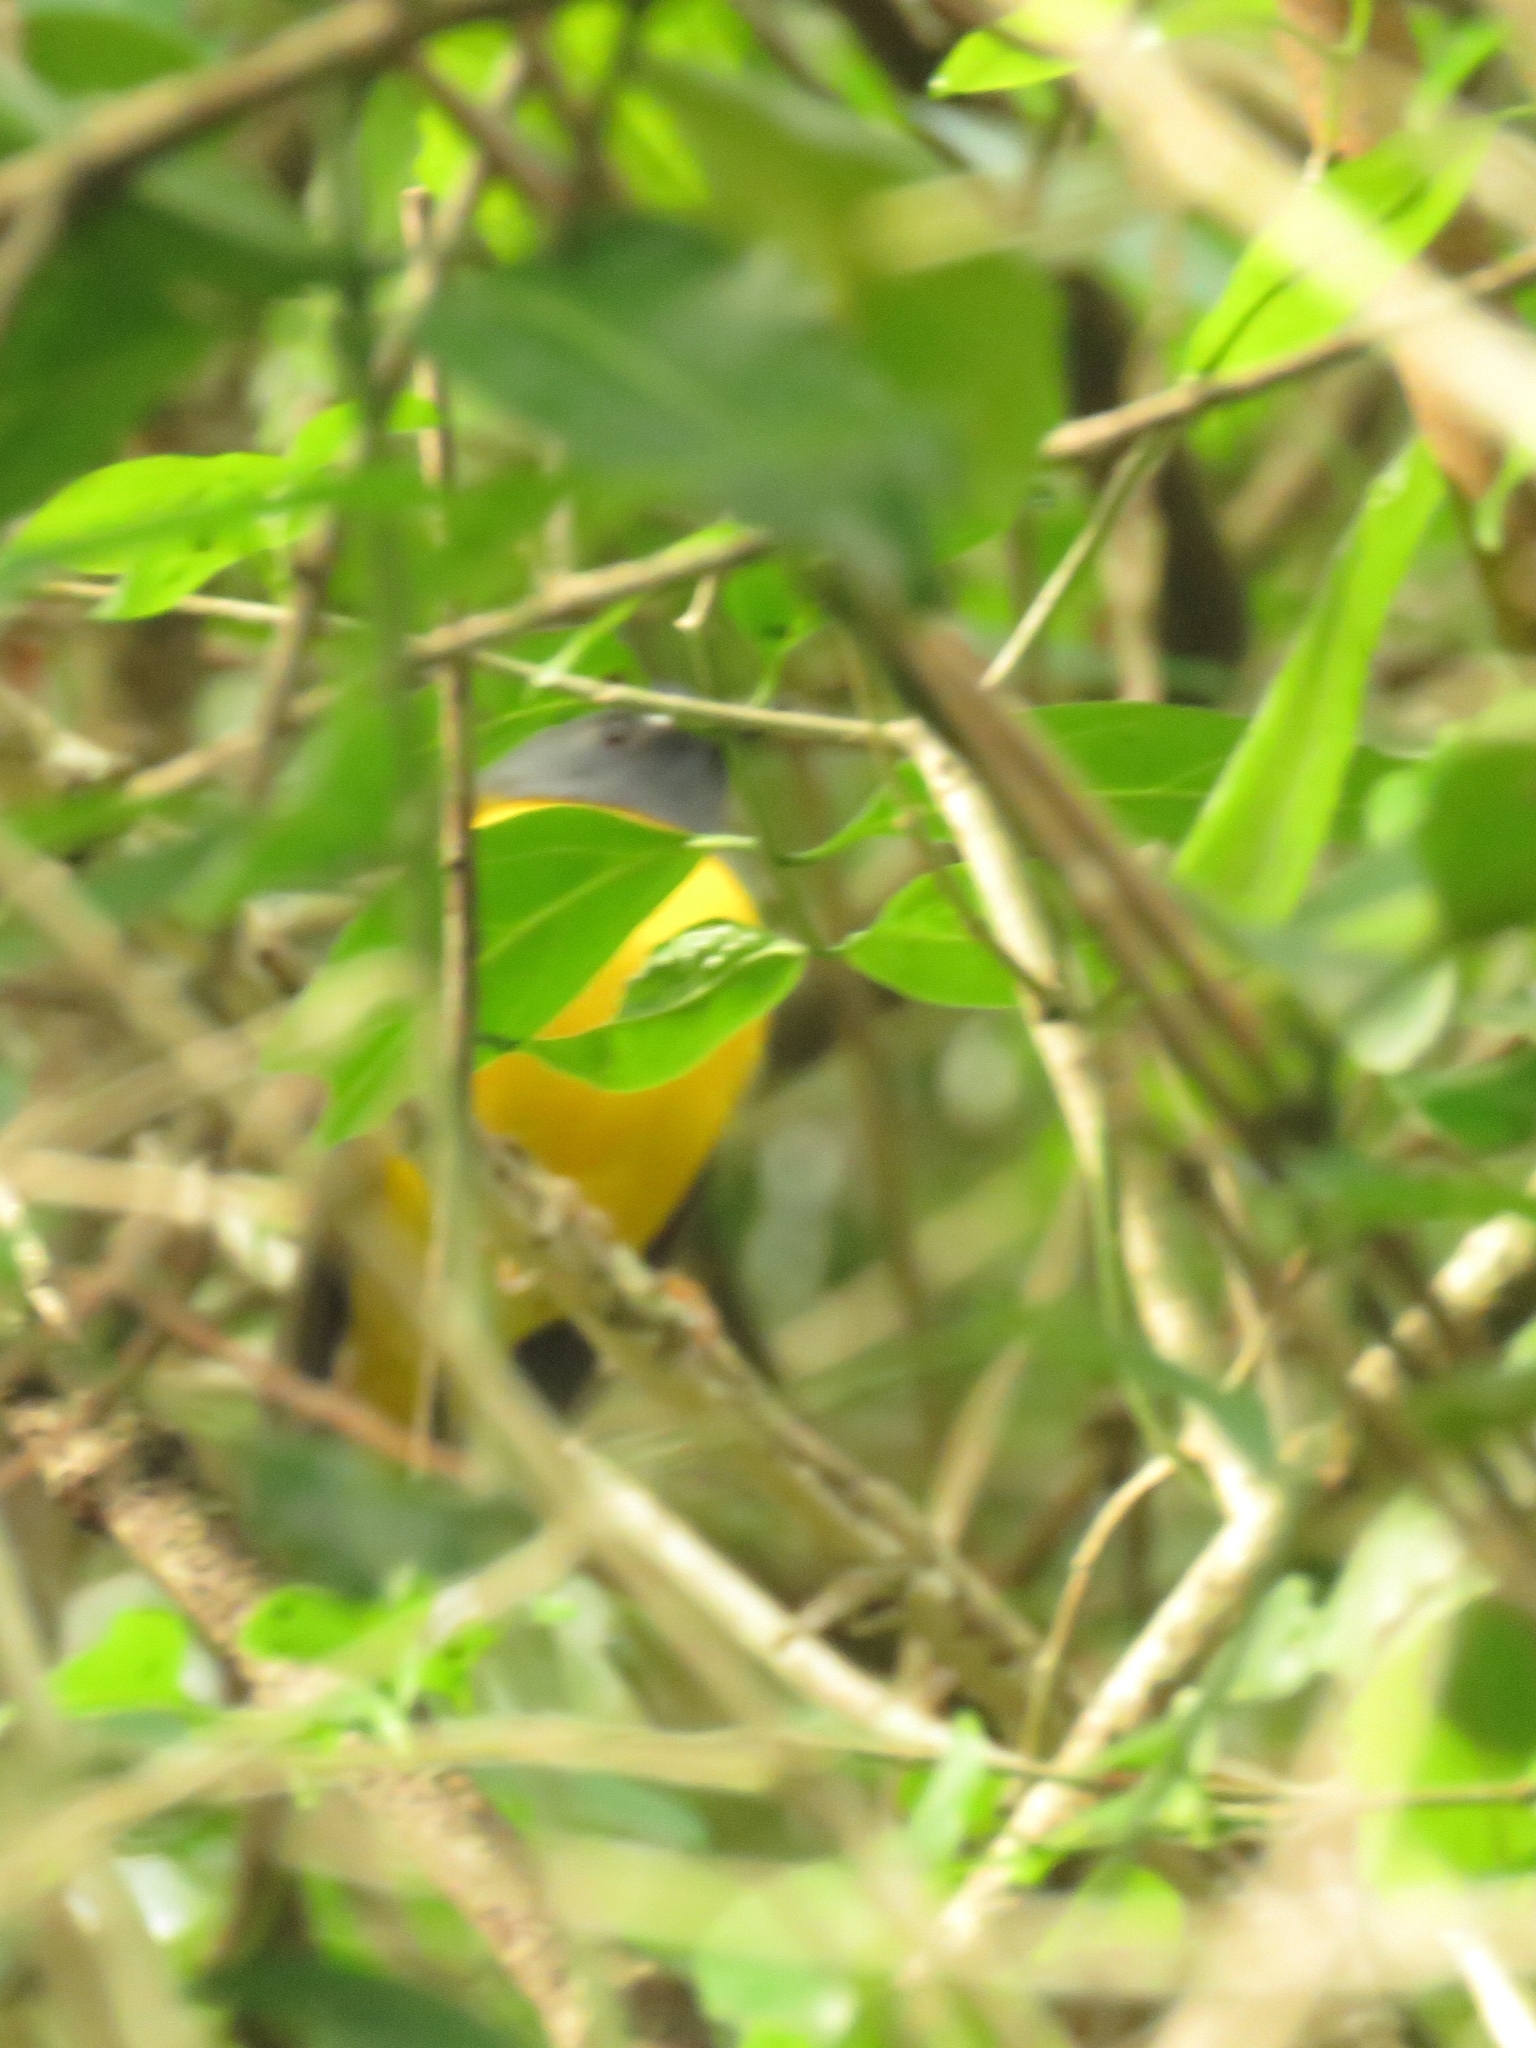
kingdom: Animalia
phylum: Chordata
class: Aves
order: Passeriformes
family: Muscicapidae
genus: Pogonocichla
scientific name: Pogonocichla stellata
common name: White-starred robin
